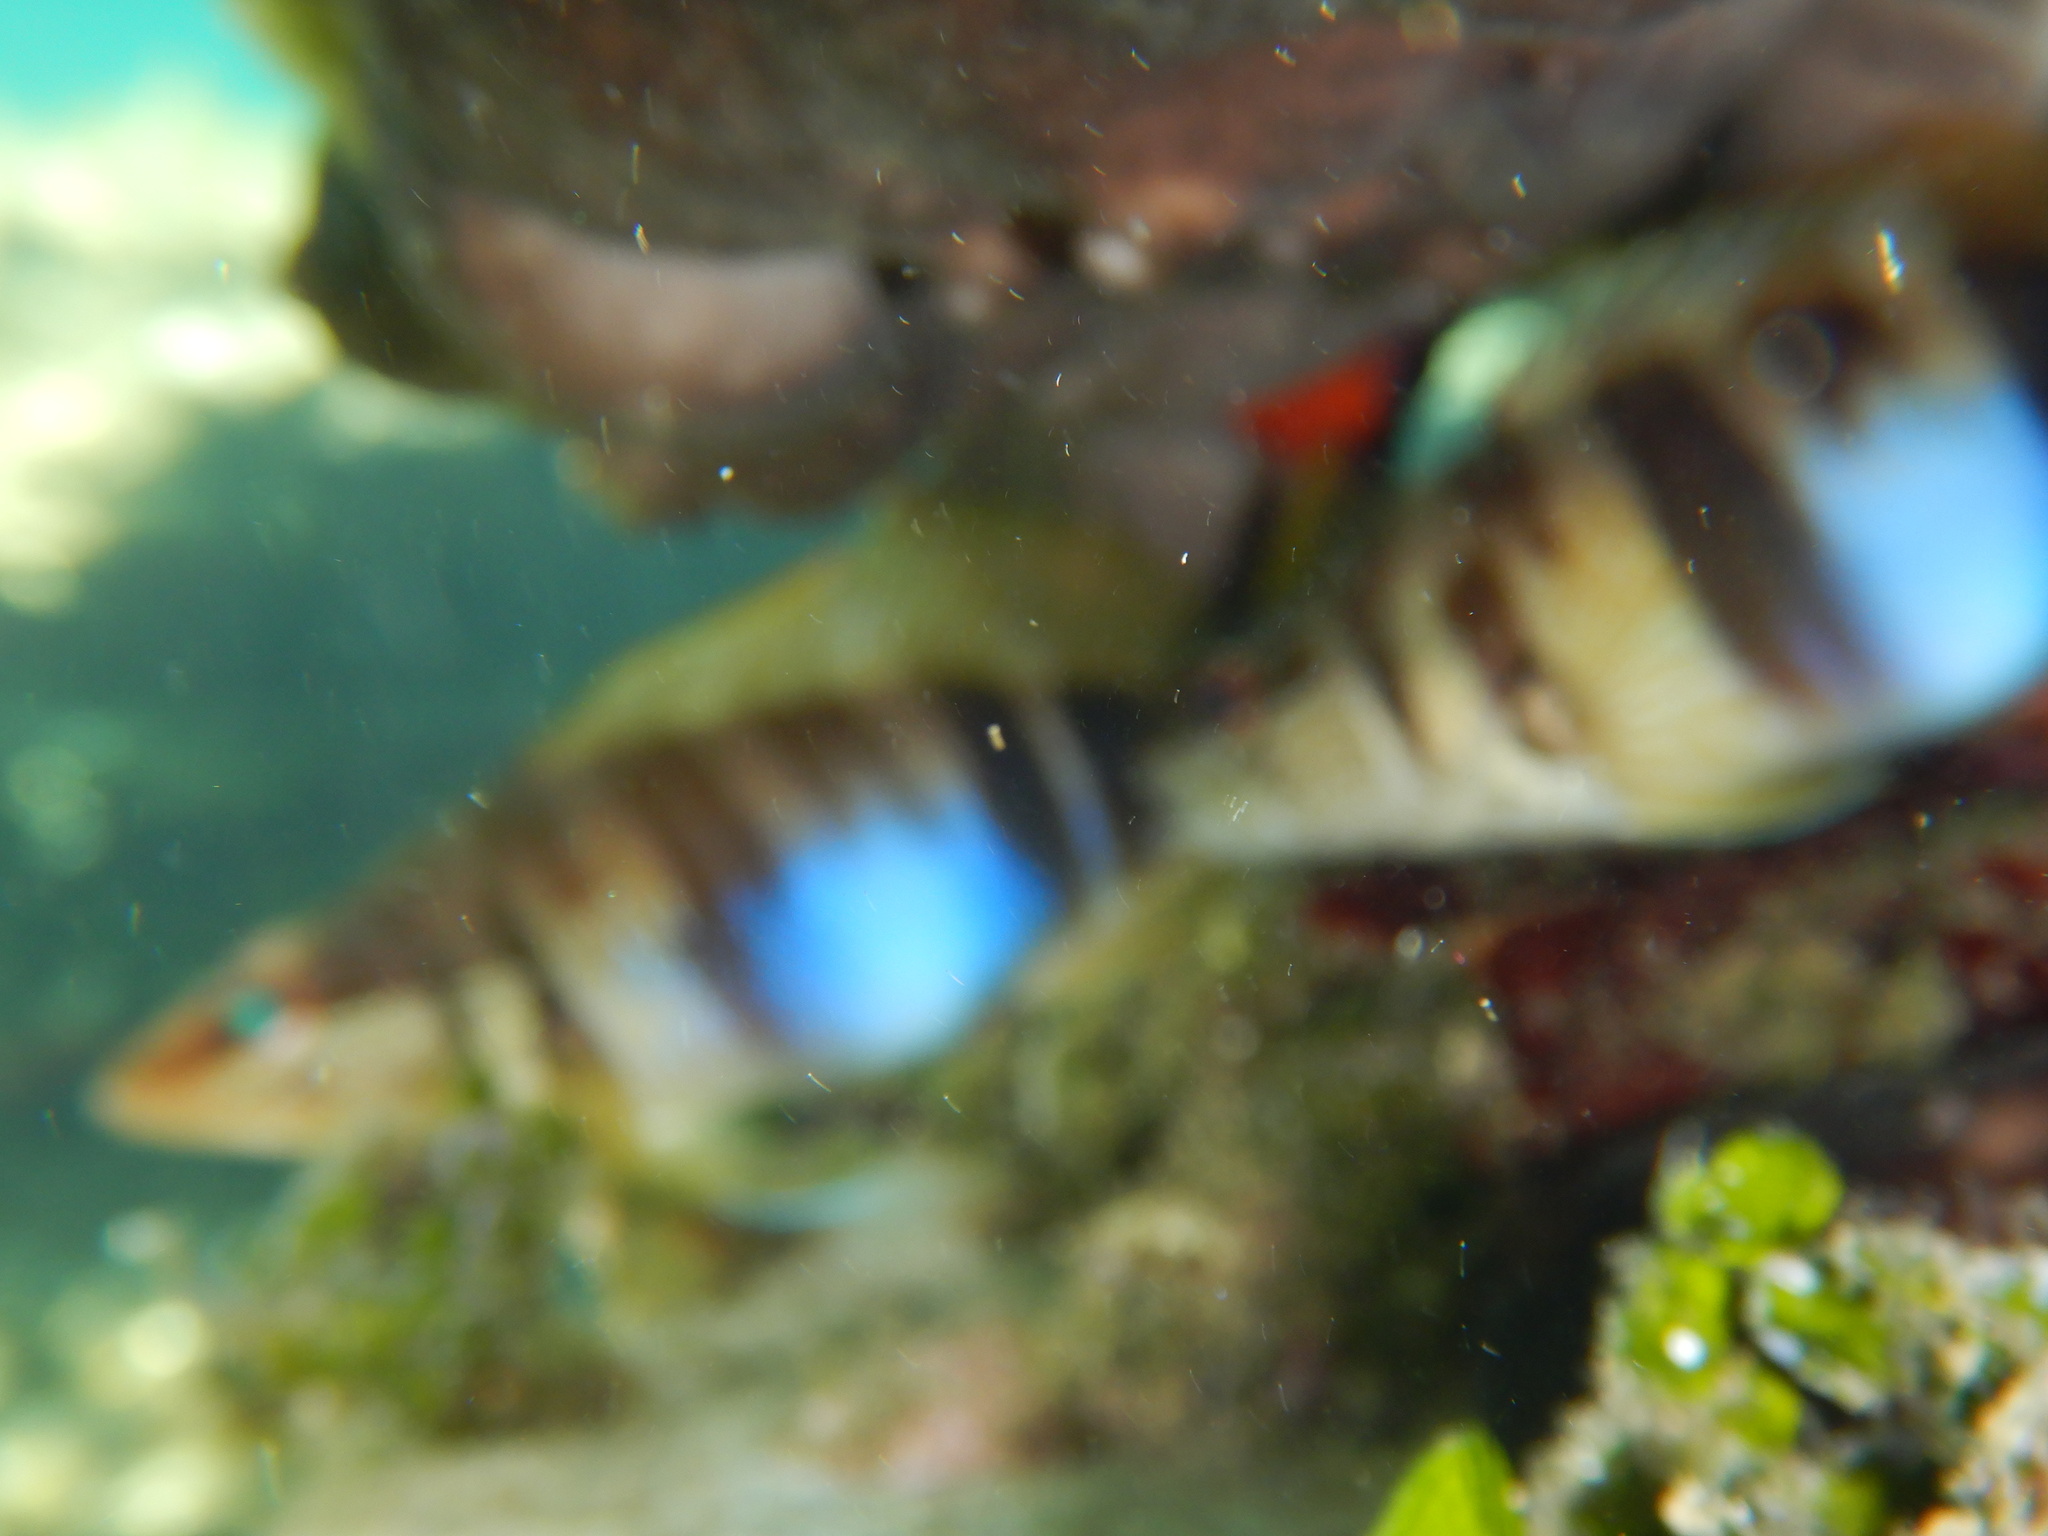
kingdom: Animalia
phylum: Chordata
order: Perciformes
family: Serranidae
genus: Serranus
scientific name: Serranus scriba
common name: Painted comber
